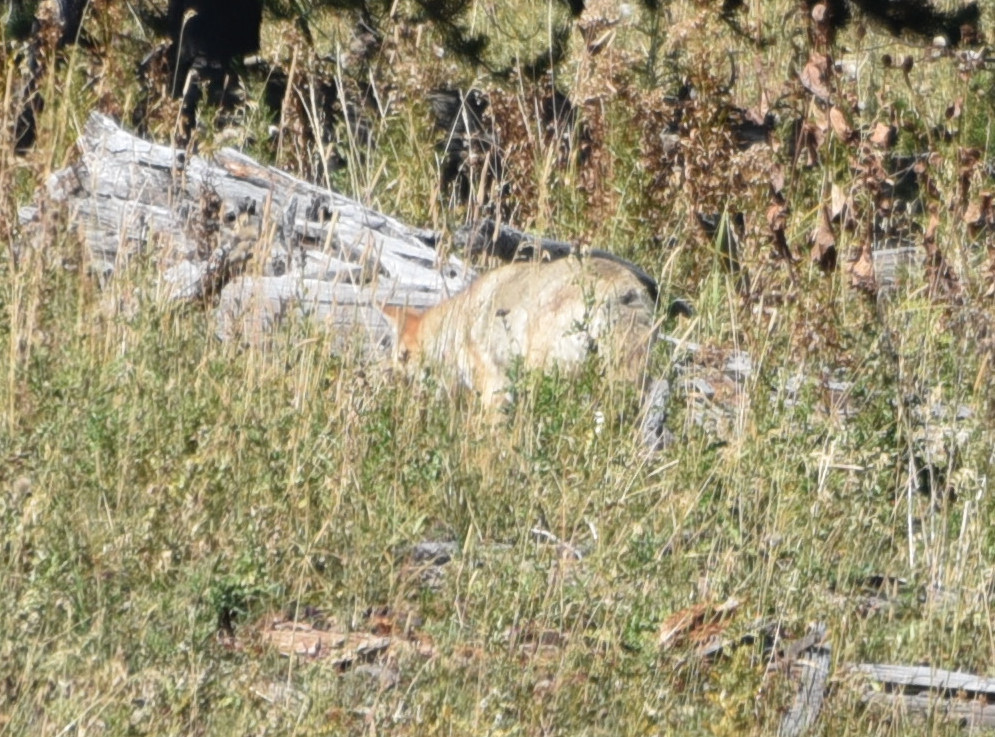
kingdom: Animalia
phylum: Chordata
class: Mammalia
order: Carnivora
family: Canidae
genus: Canis
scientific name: Canis latrans
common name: Coyote
